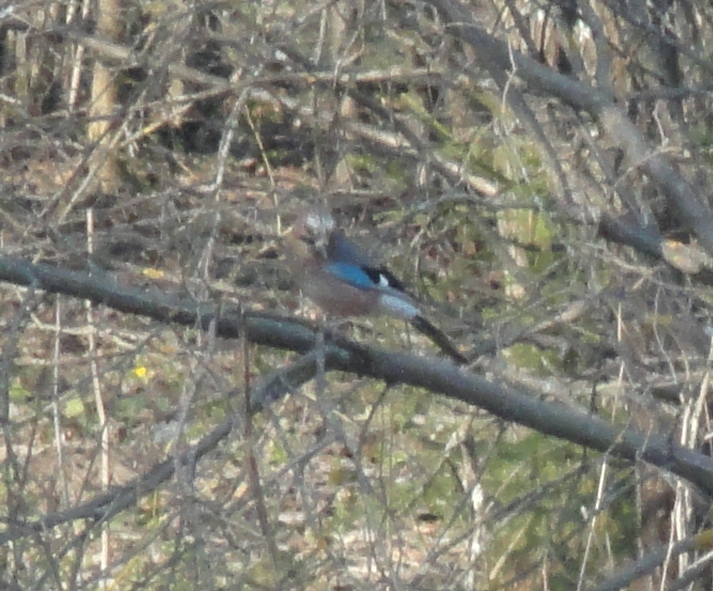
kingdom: Animalia
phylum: Chordata
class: Aves
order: Passeriformes
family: Corvidae
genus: Garrulus
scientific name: Garrulus glandarius
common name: Eurasian jay
